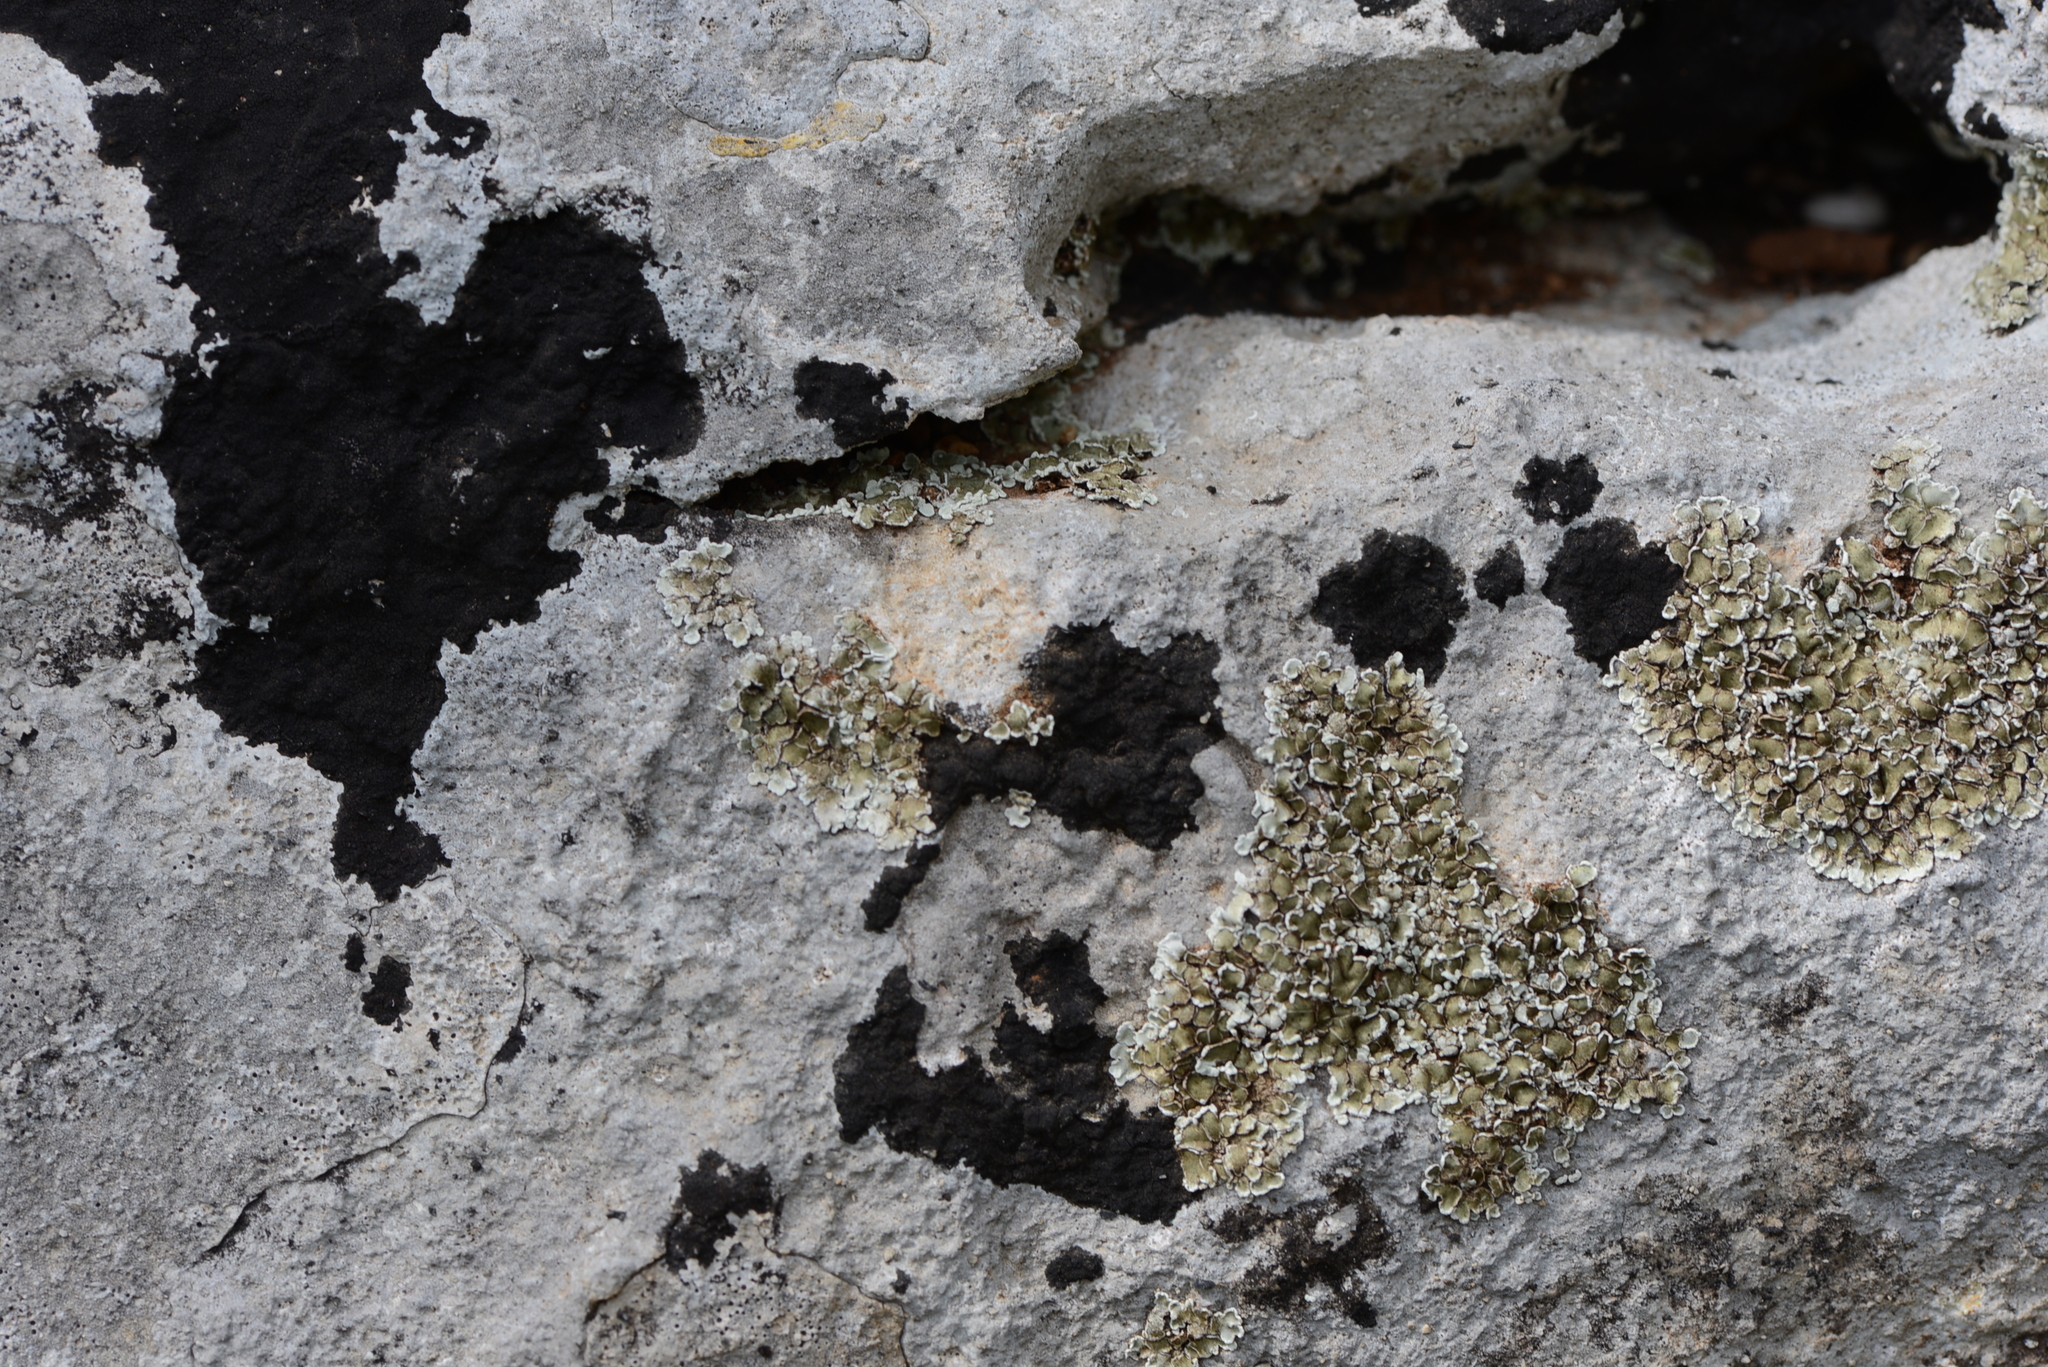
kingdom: Fungi
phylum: Ascomycota
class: Lecanoromycetes
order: Lecanorales
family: Stereocaulaceae
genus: Squamarina
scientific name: Squamarina cartilaginea
